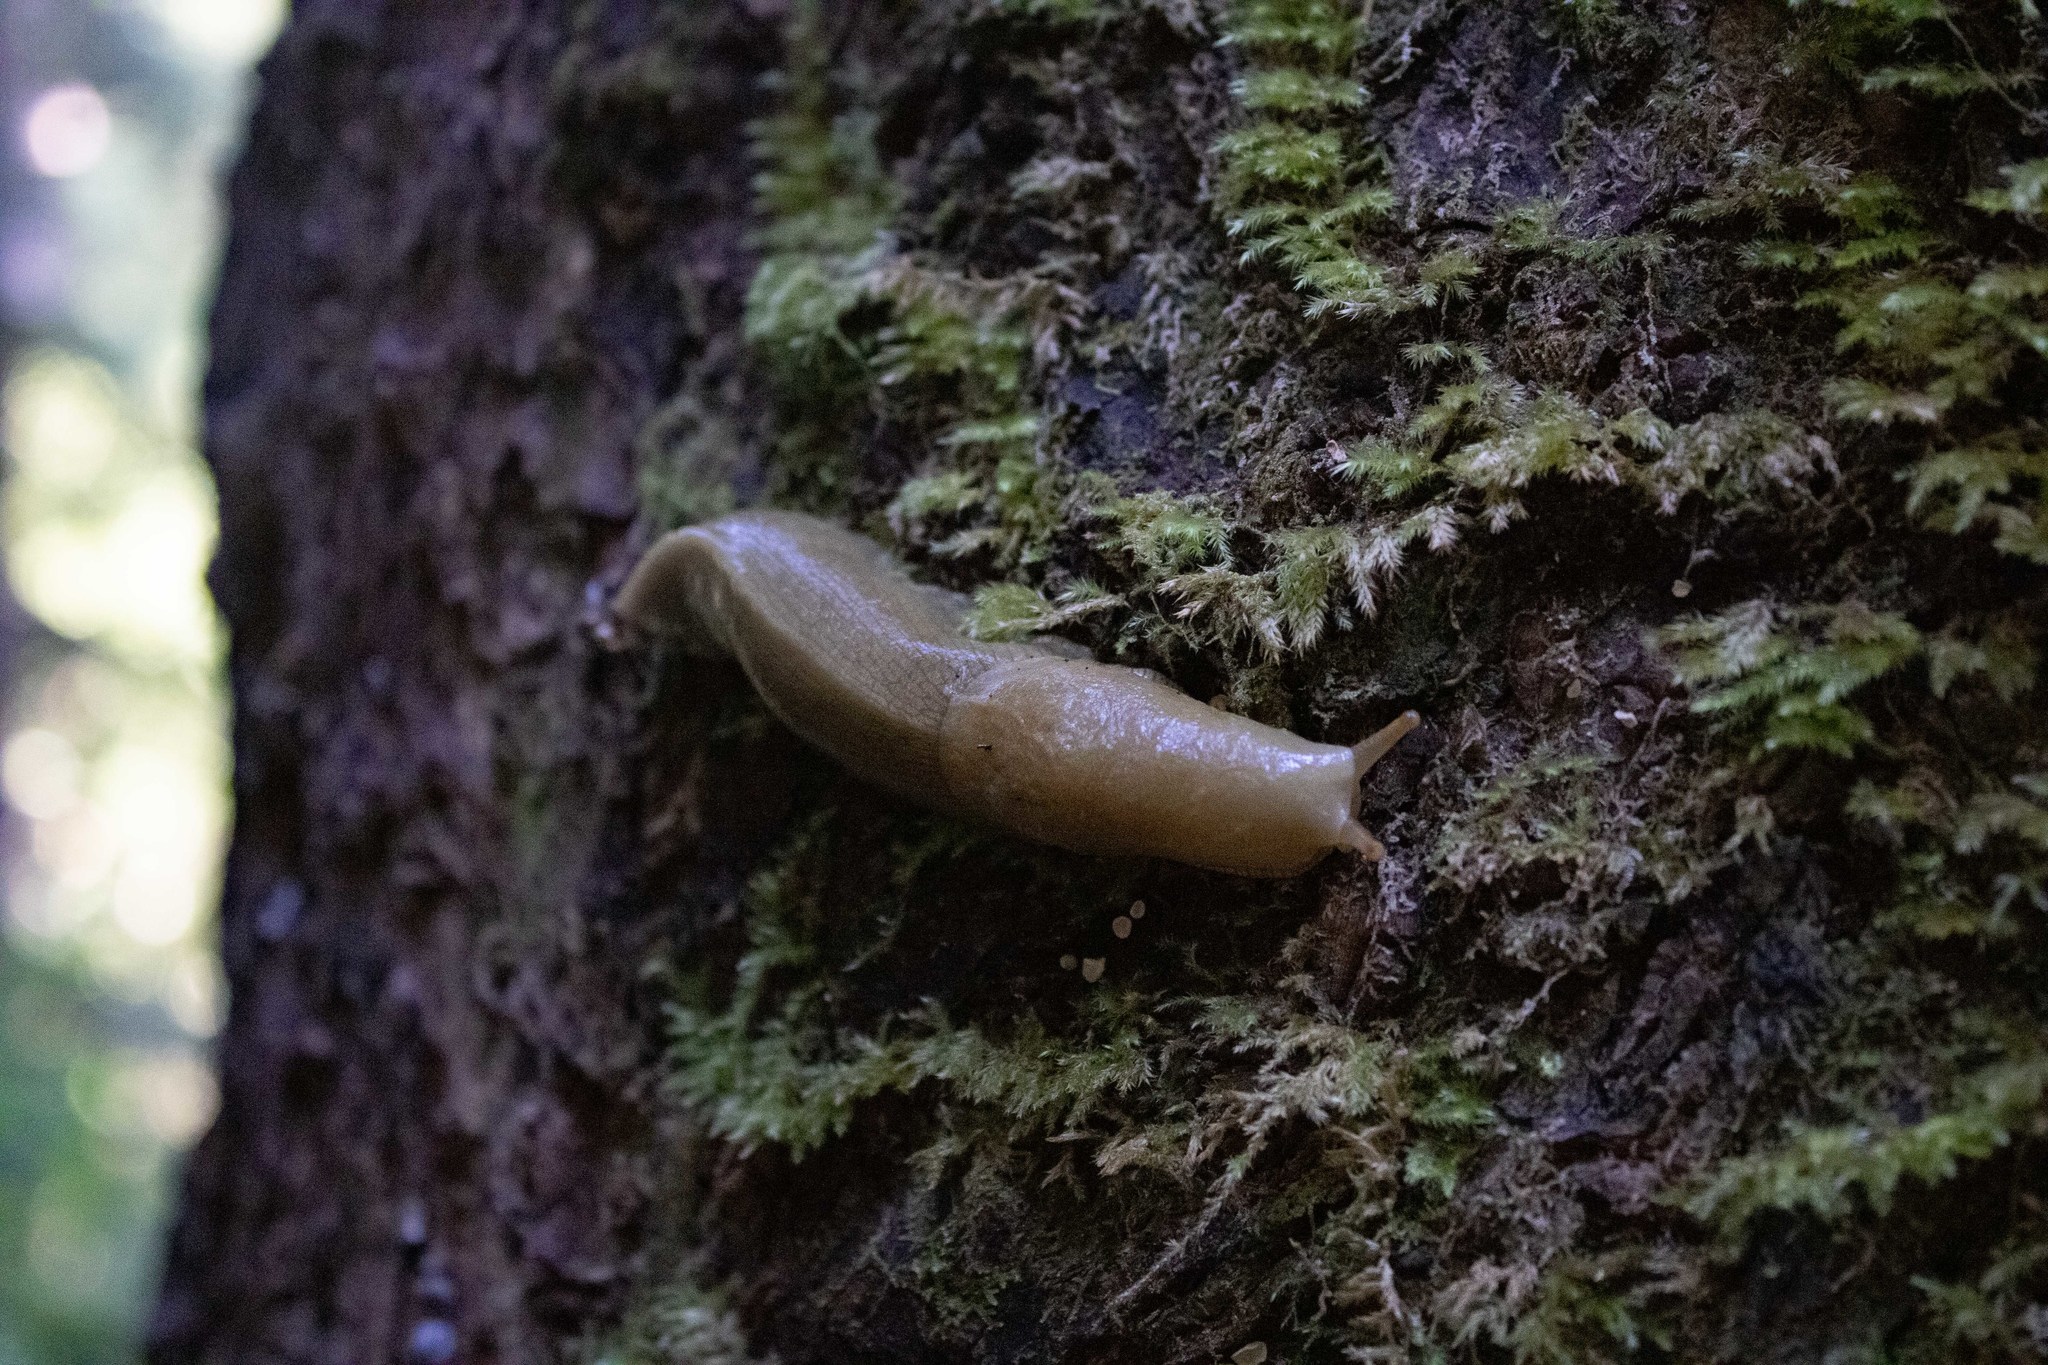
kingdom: Animalia
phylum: Mollusca
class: Gastropoda
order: Stylommatophora
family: Ariolimacidae
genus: Ariolimax
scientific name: Ariolimax columbianus
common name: Pacific banana slug
